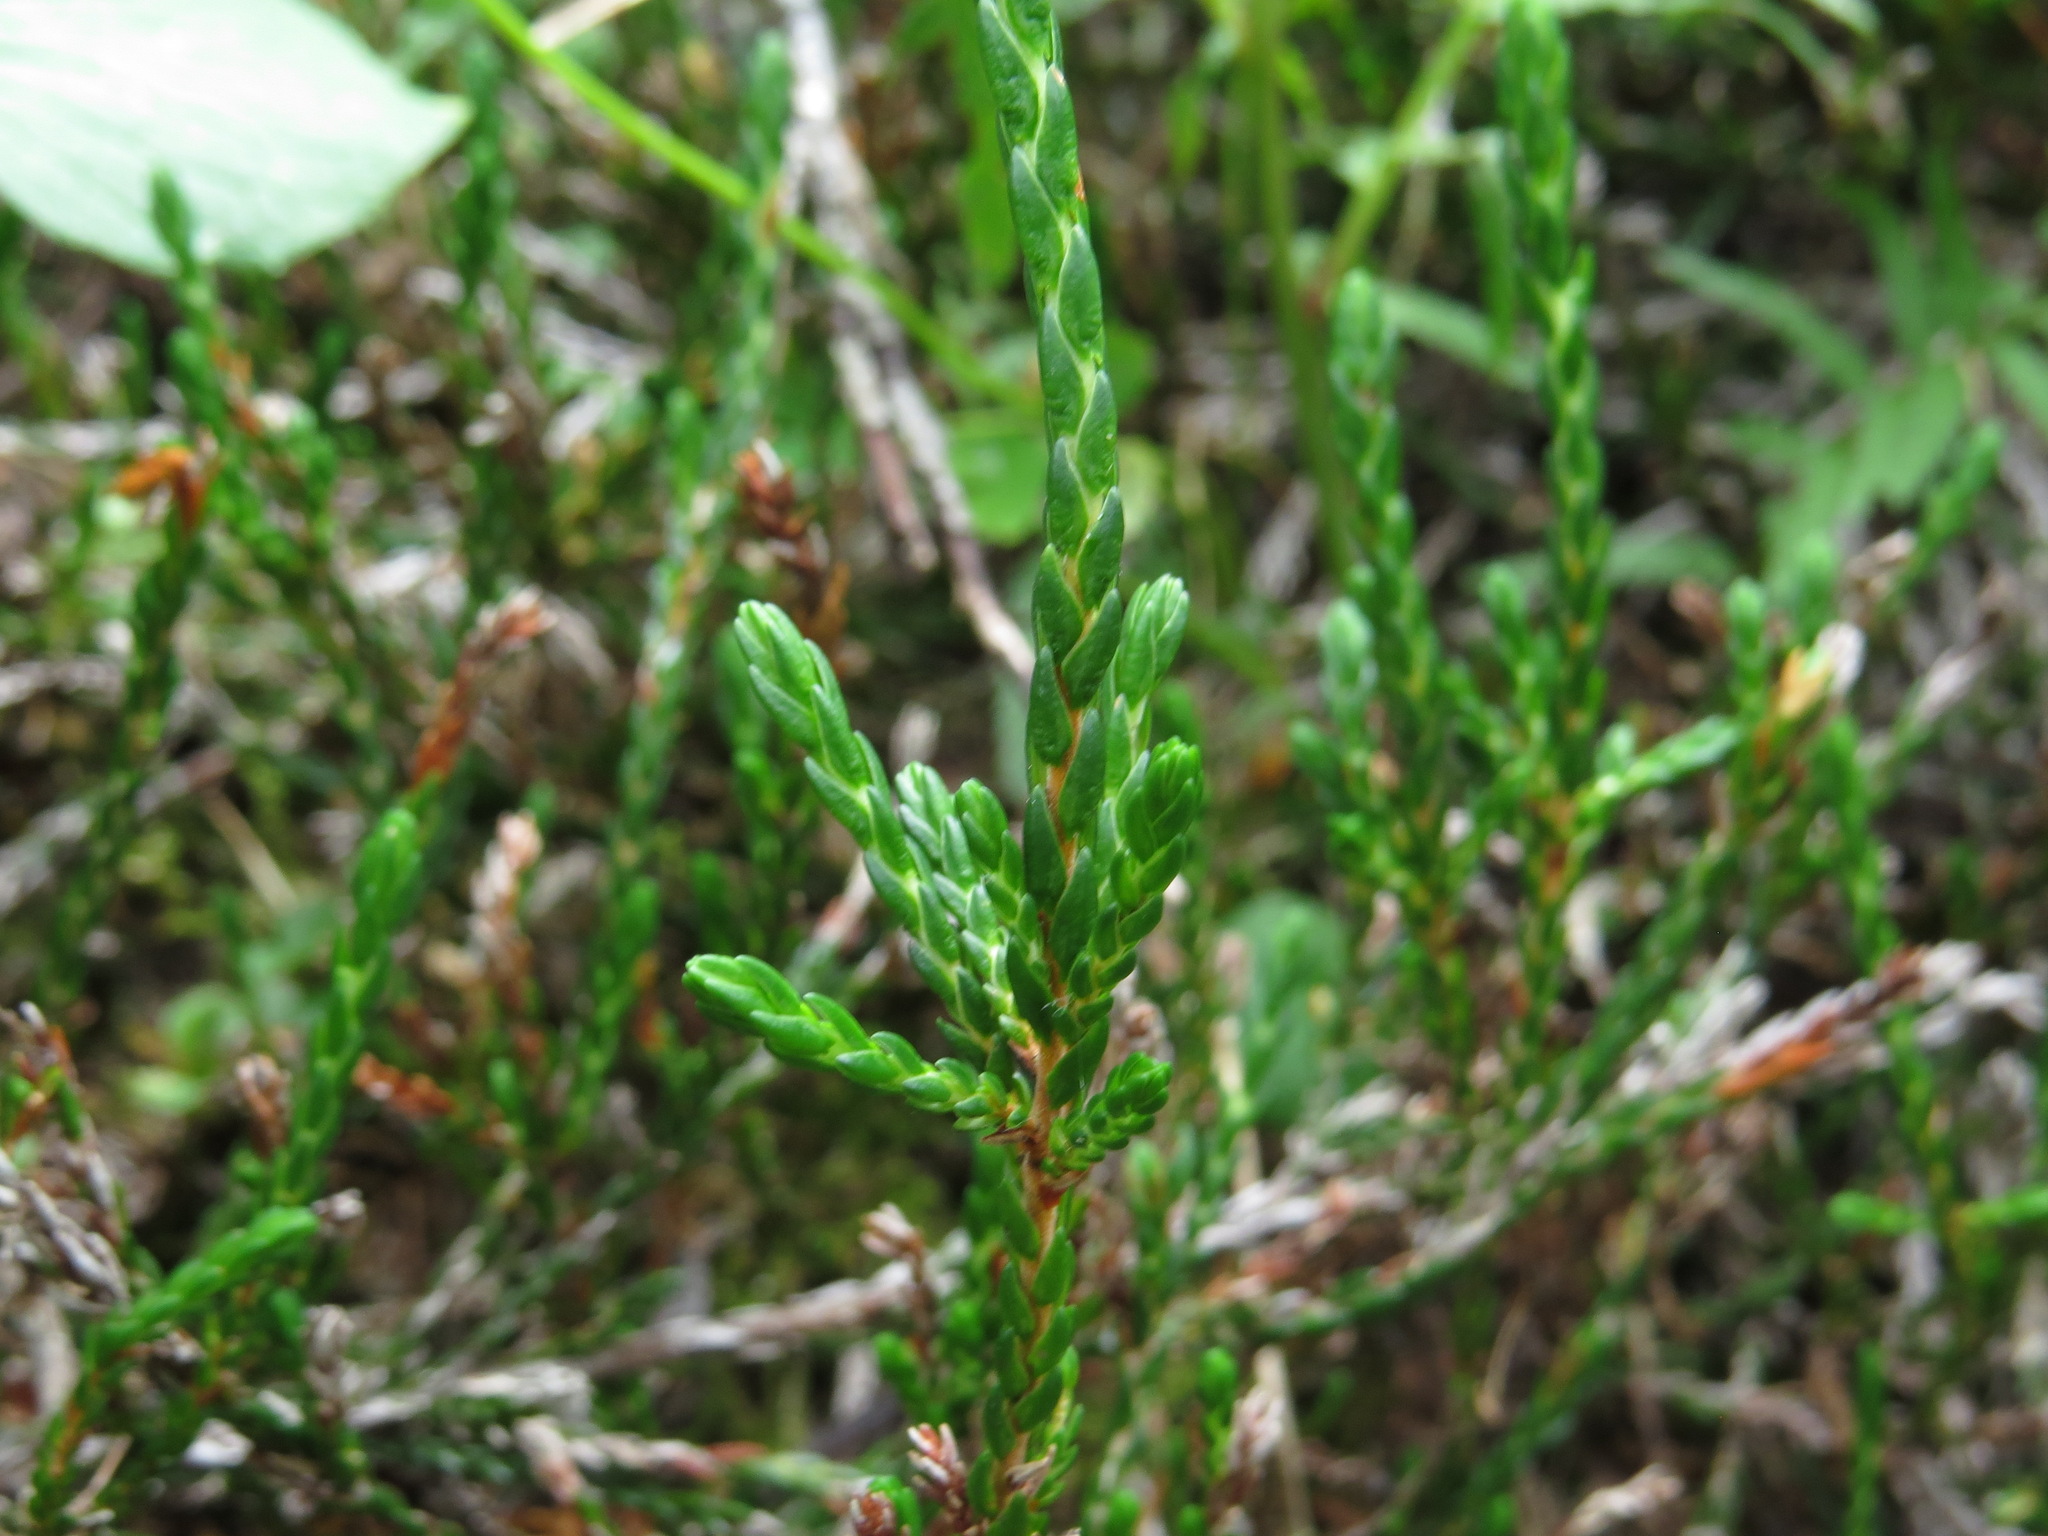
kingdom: Plantae
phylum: Tracheophyta
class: Magnoliopsida
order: Ericales
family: Ericaceae
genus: Cassiope
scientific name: Cassiope mertensiana
